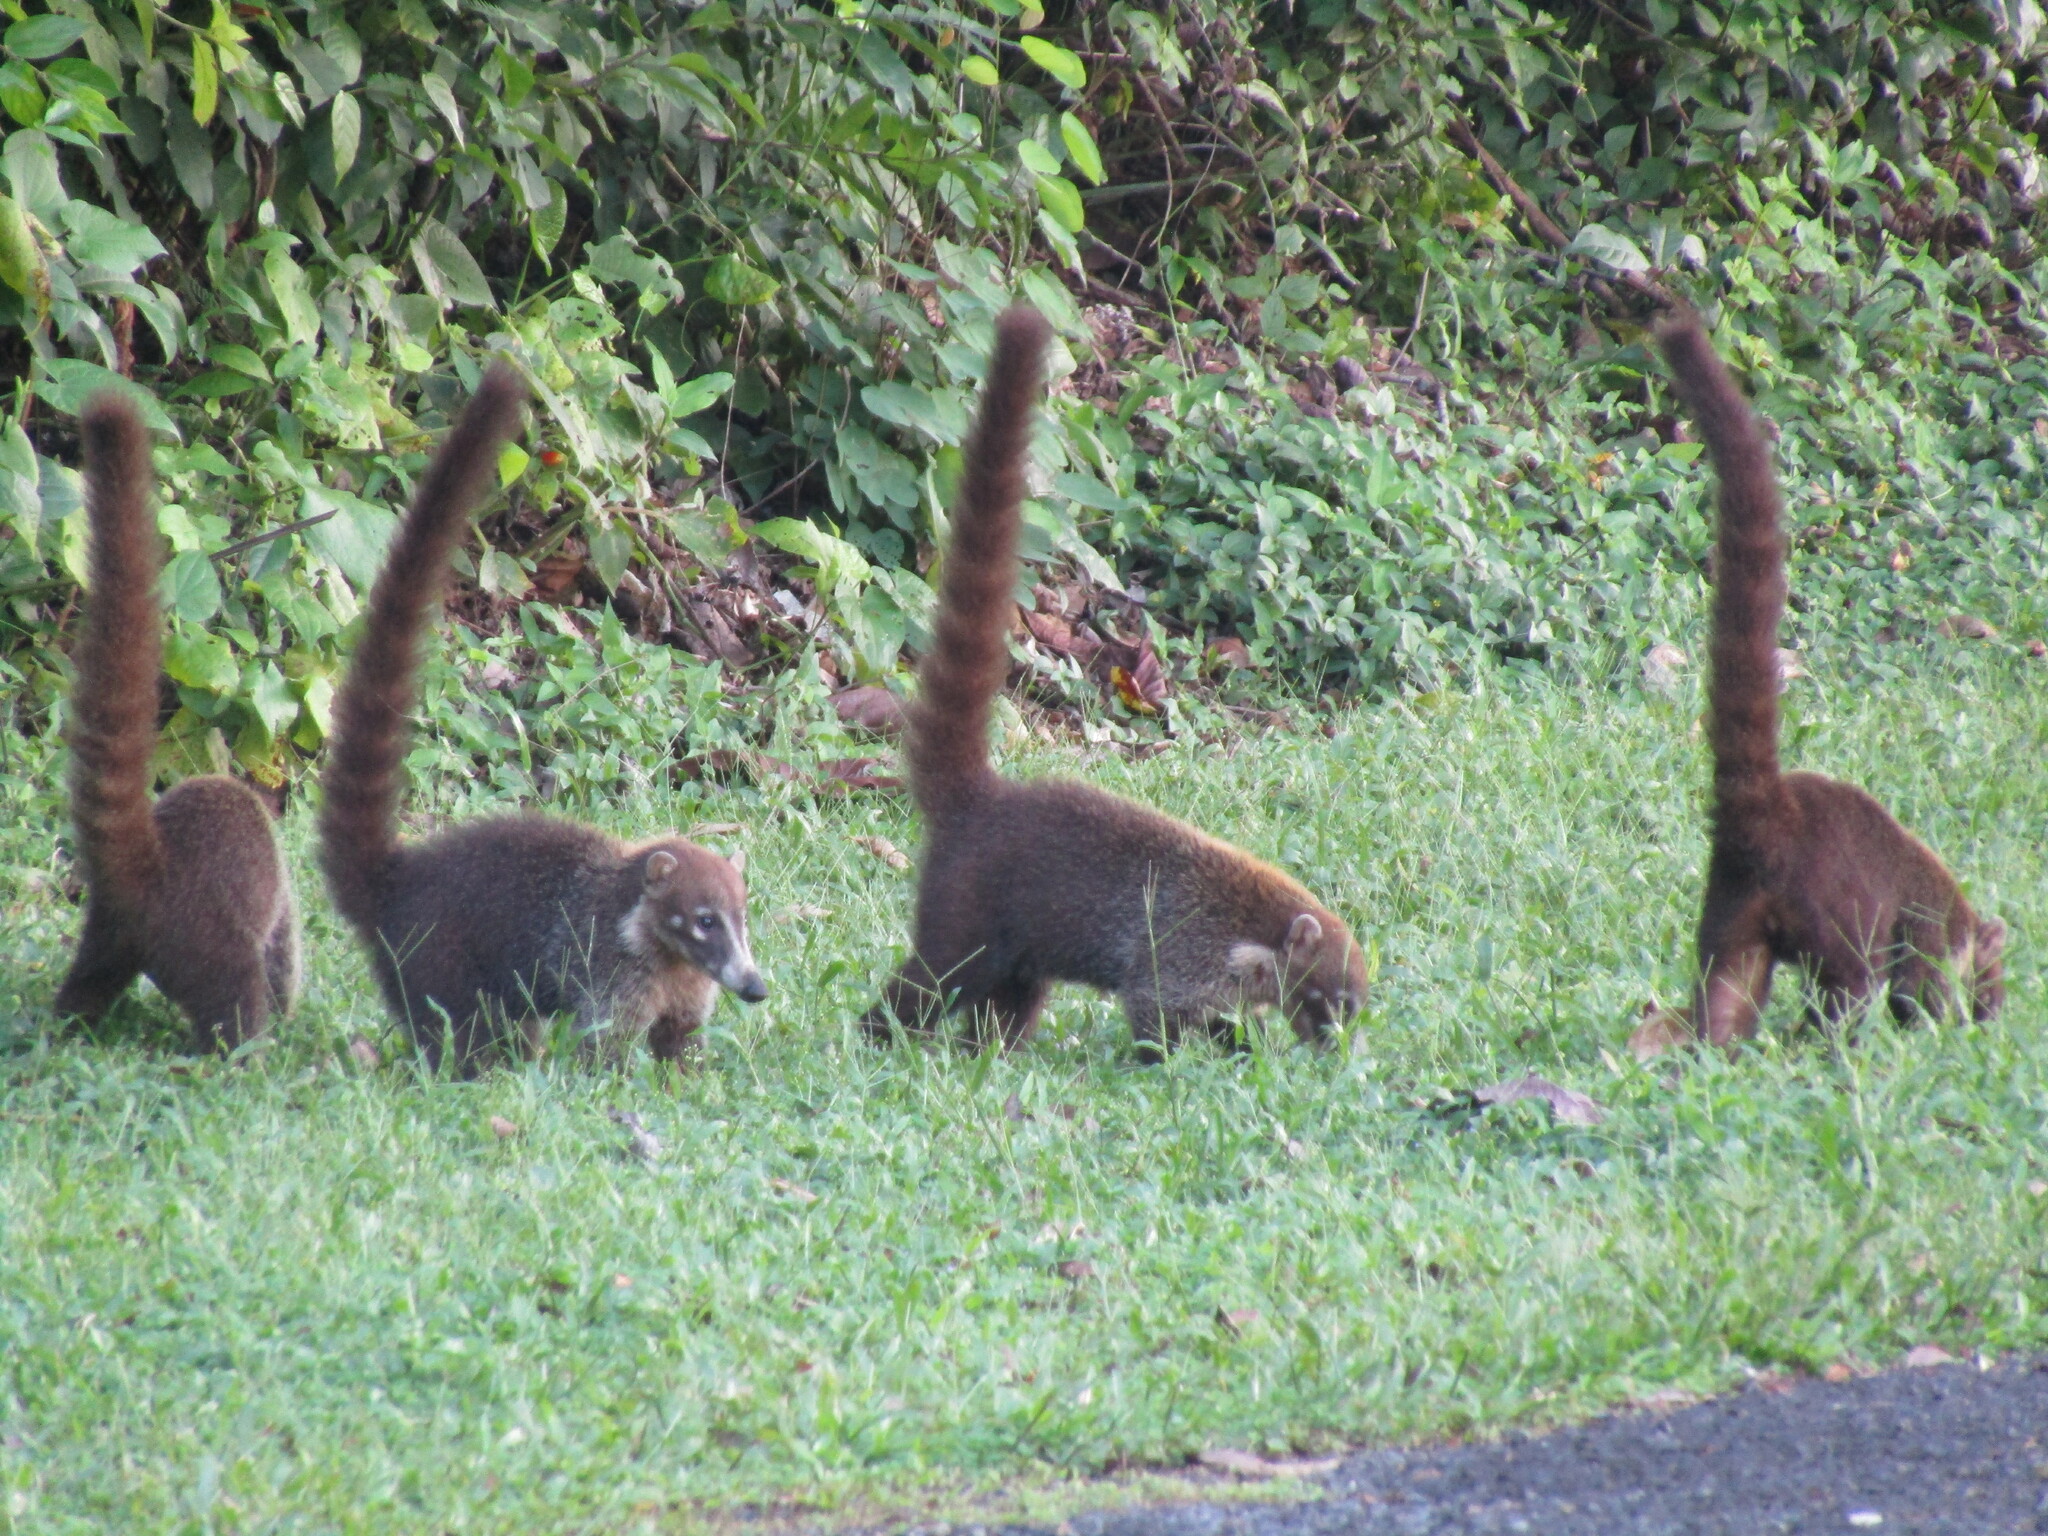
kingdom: Animalia
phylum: Chordata
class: Mammalia
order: Carnivora
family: Procyonidae
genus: Nasua
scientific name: Nasua narica
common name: White-nosed coati
